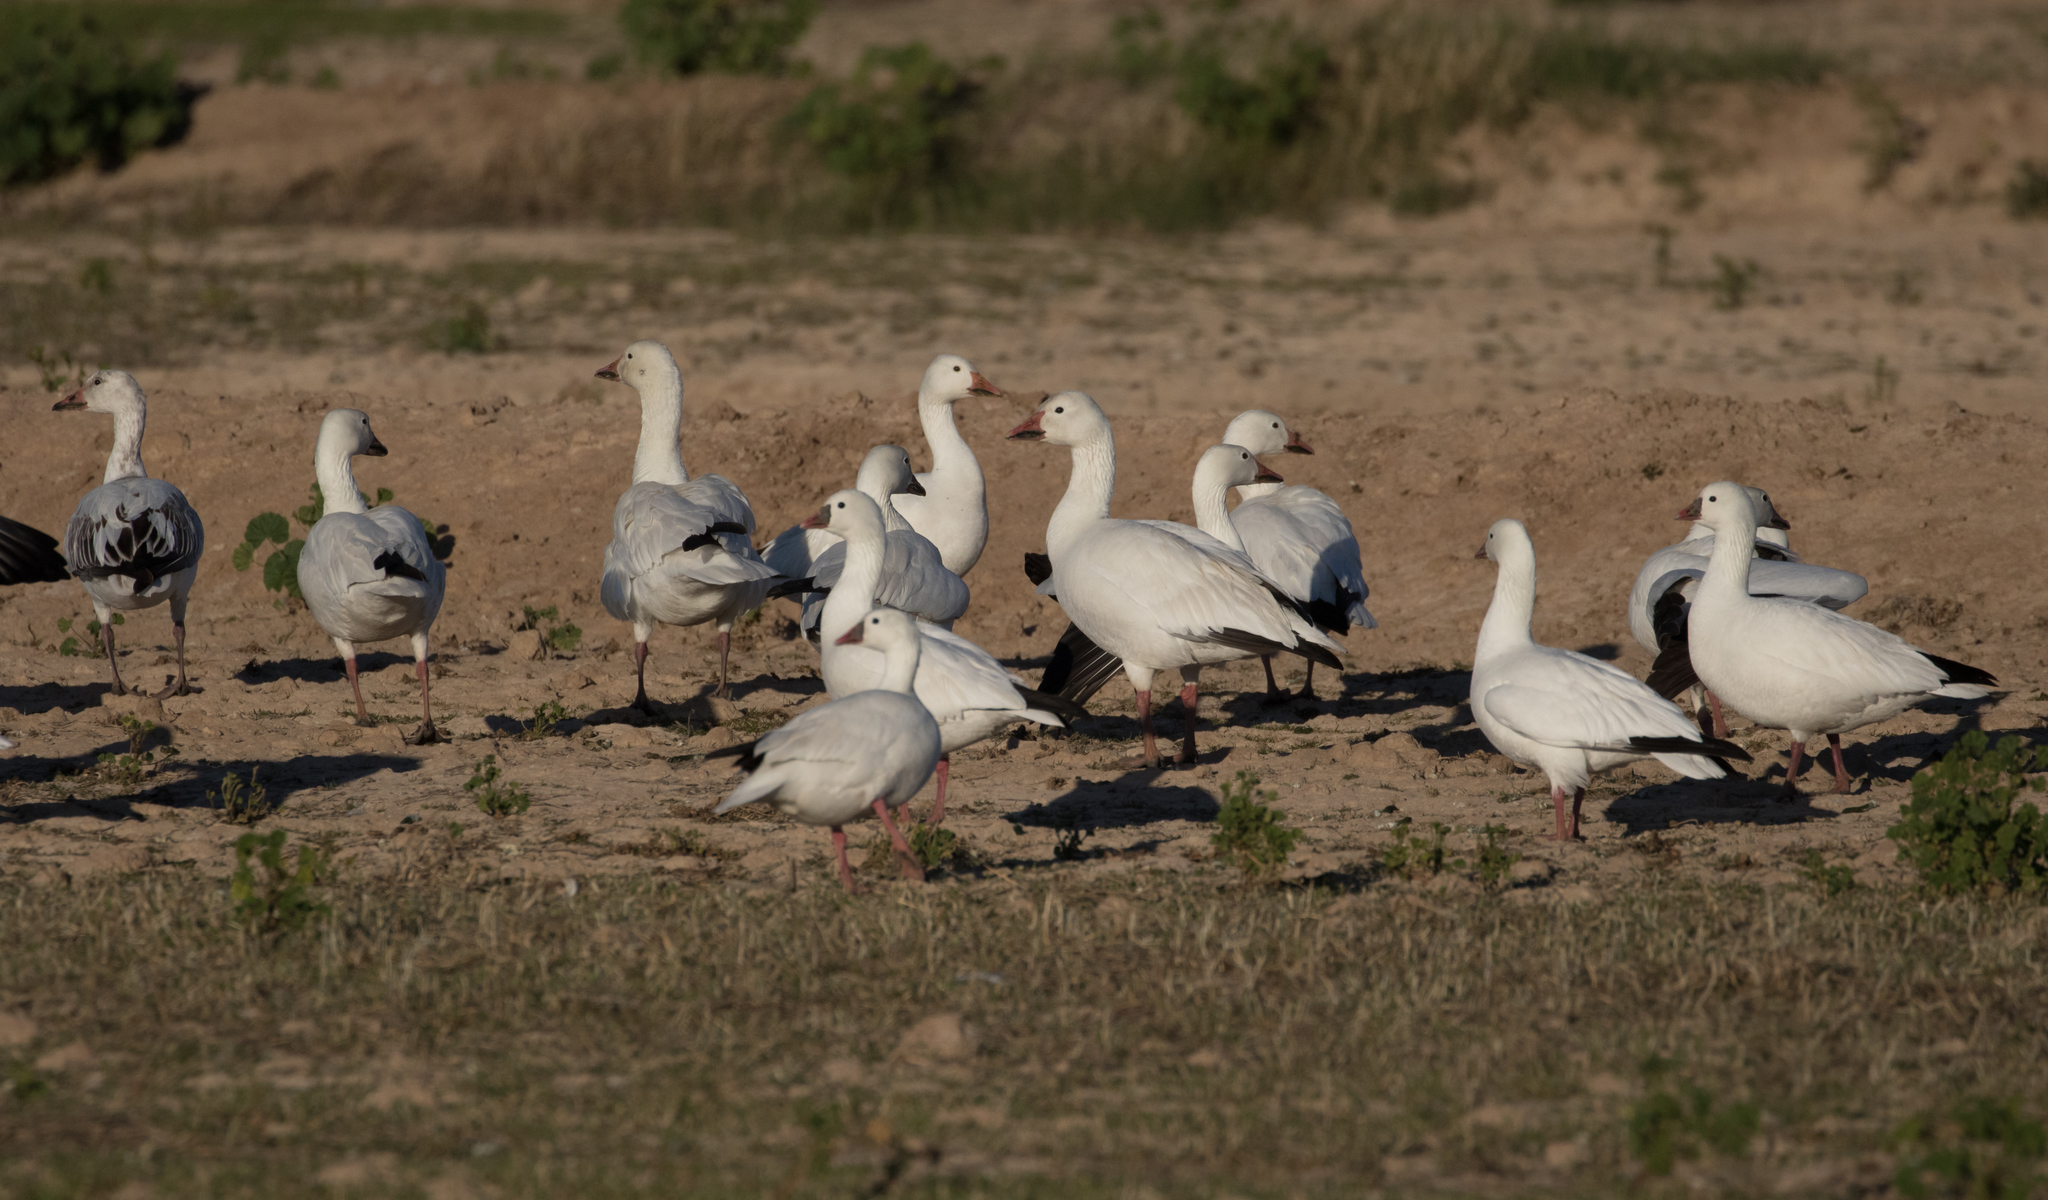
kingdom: Animalia
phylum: Chordata
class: Aves
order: Anseriformes
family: Anatidae
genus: Anser
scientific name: Anser caerulescens
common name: Snow goose
